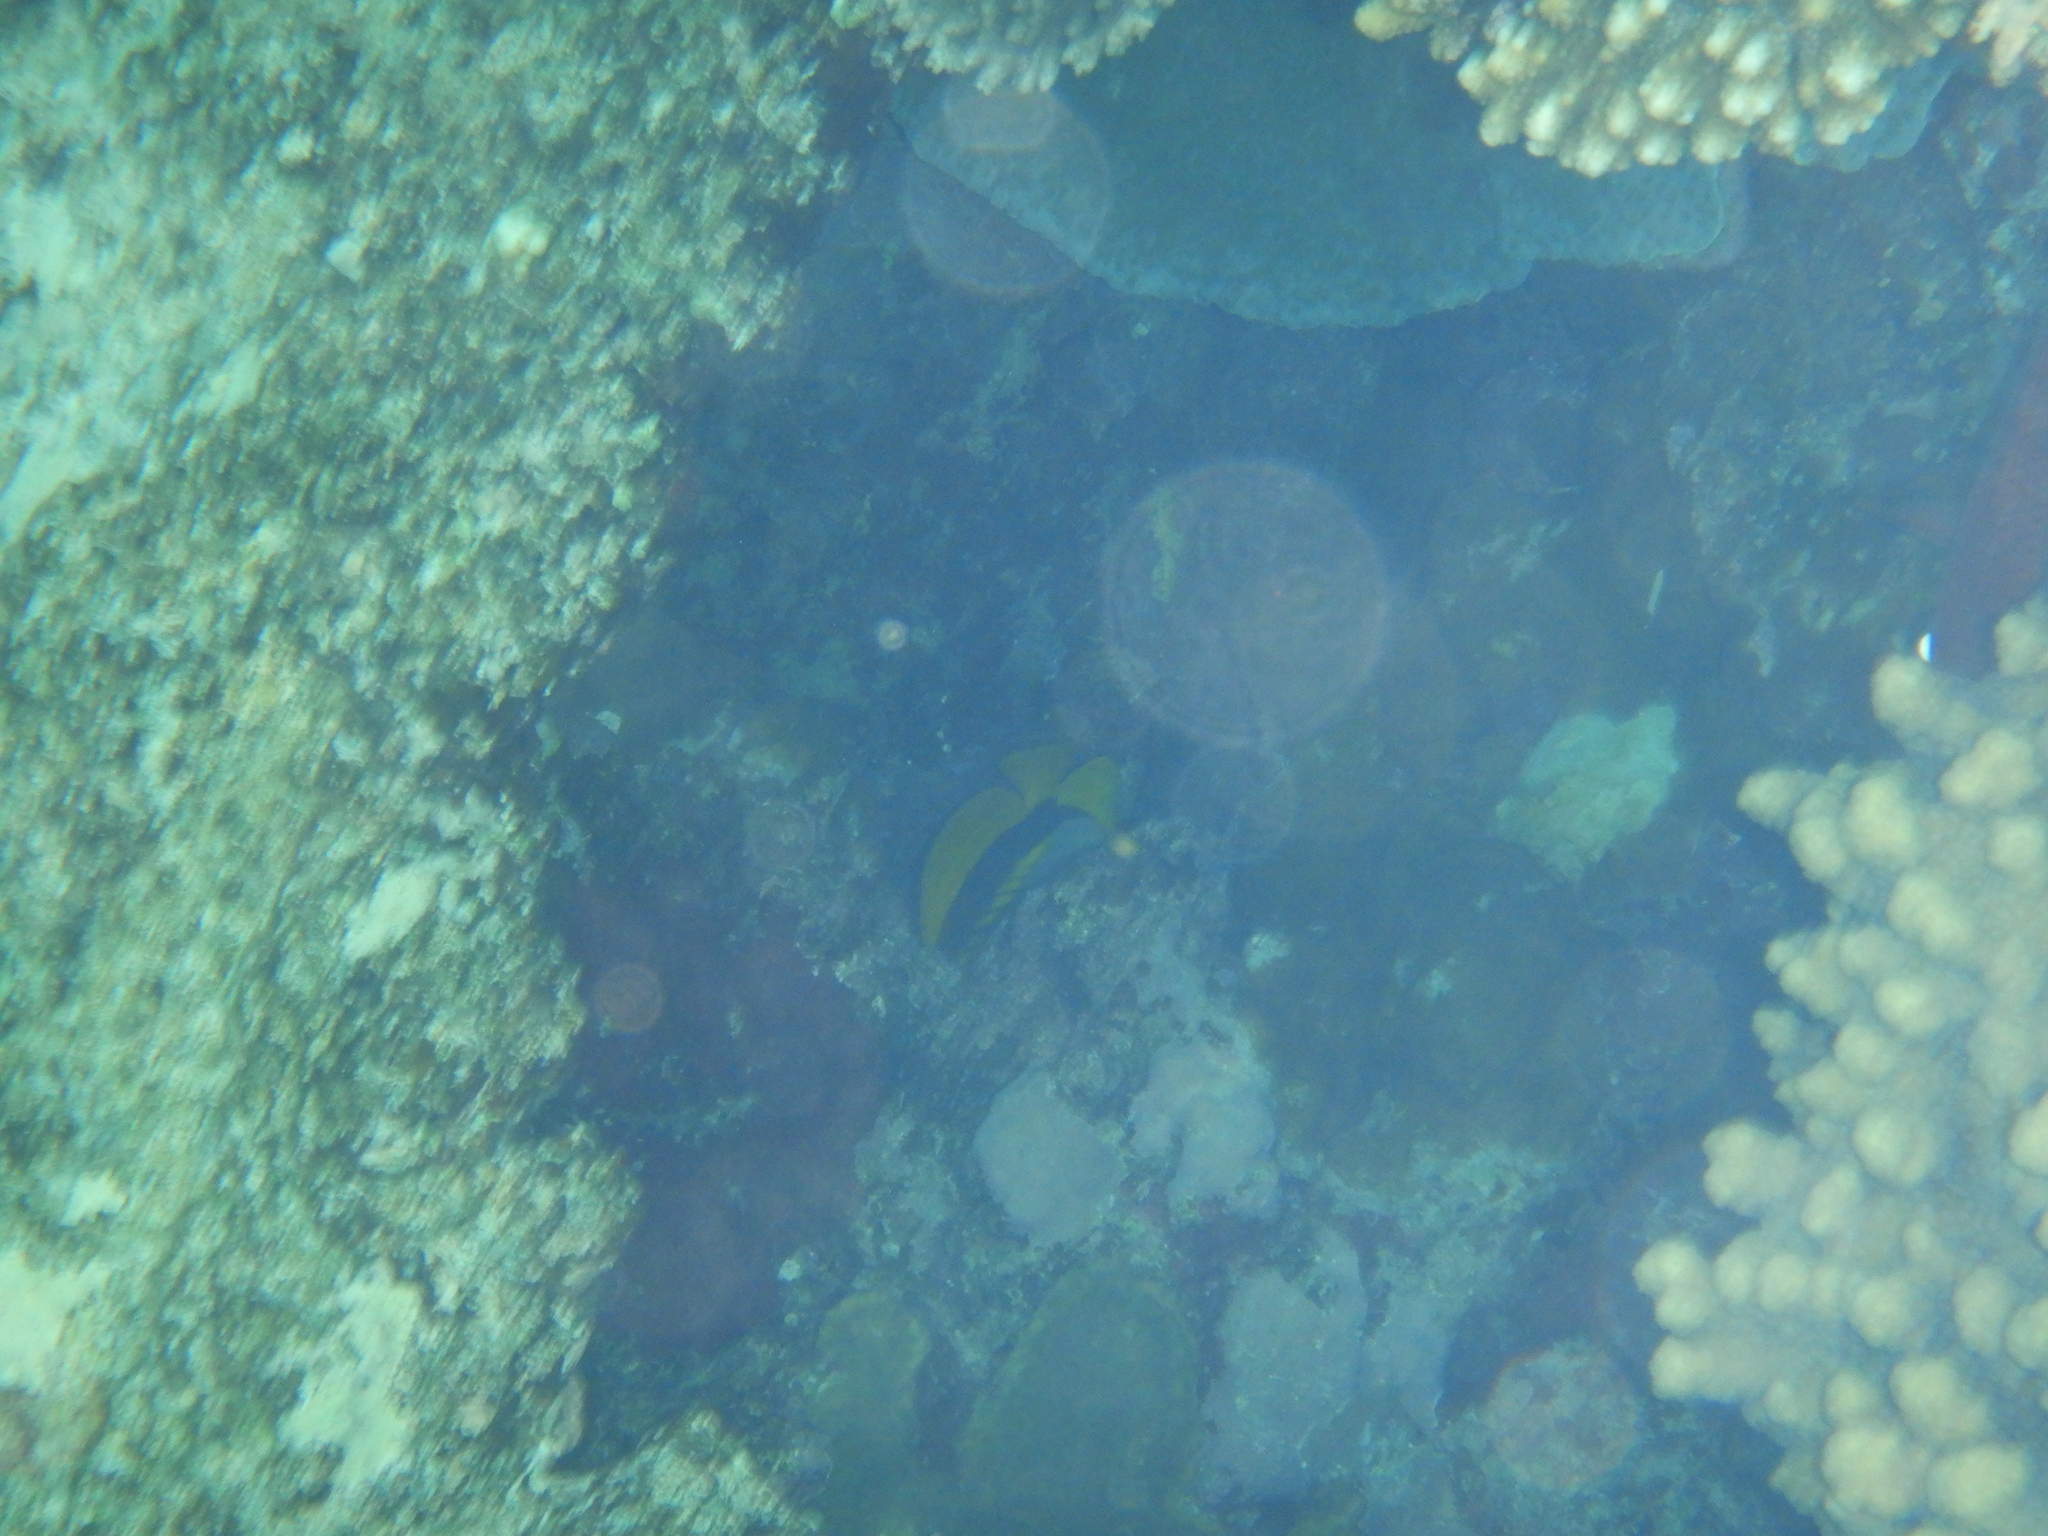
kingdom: Animalia
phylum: Chordata
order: Perciformes
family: Chaetodontidae
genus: Chaetodon
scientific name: Chaetodon lineolatus
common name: Lined butterflyfish
